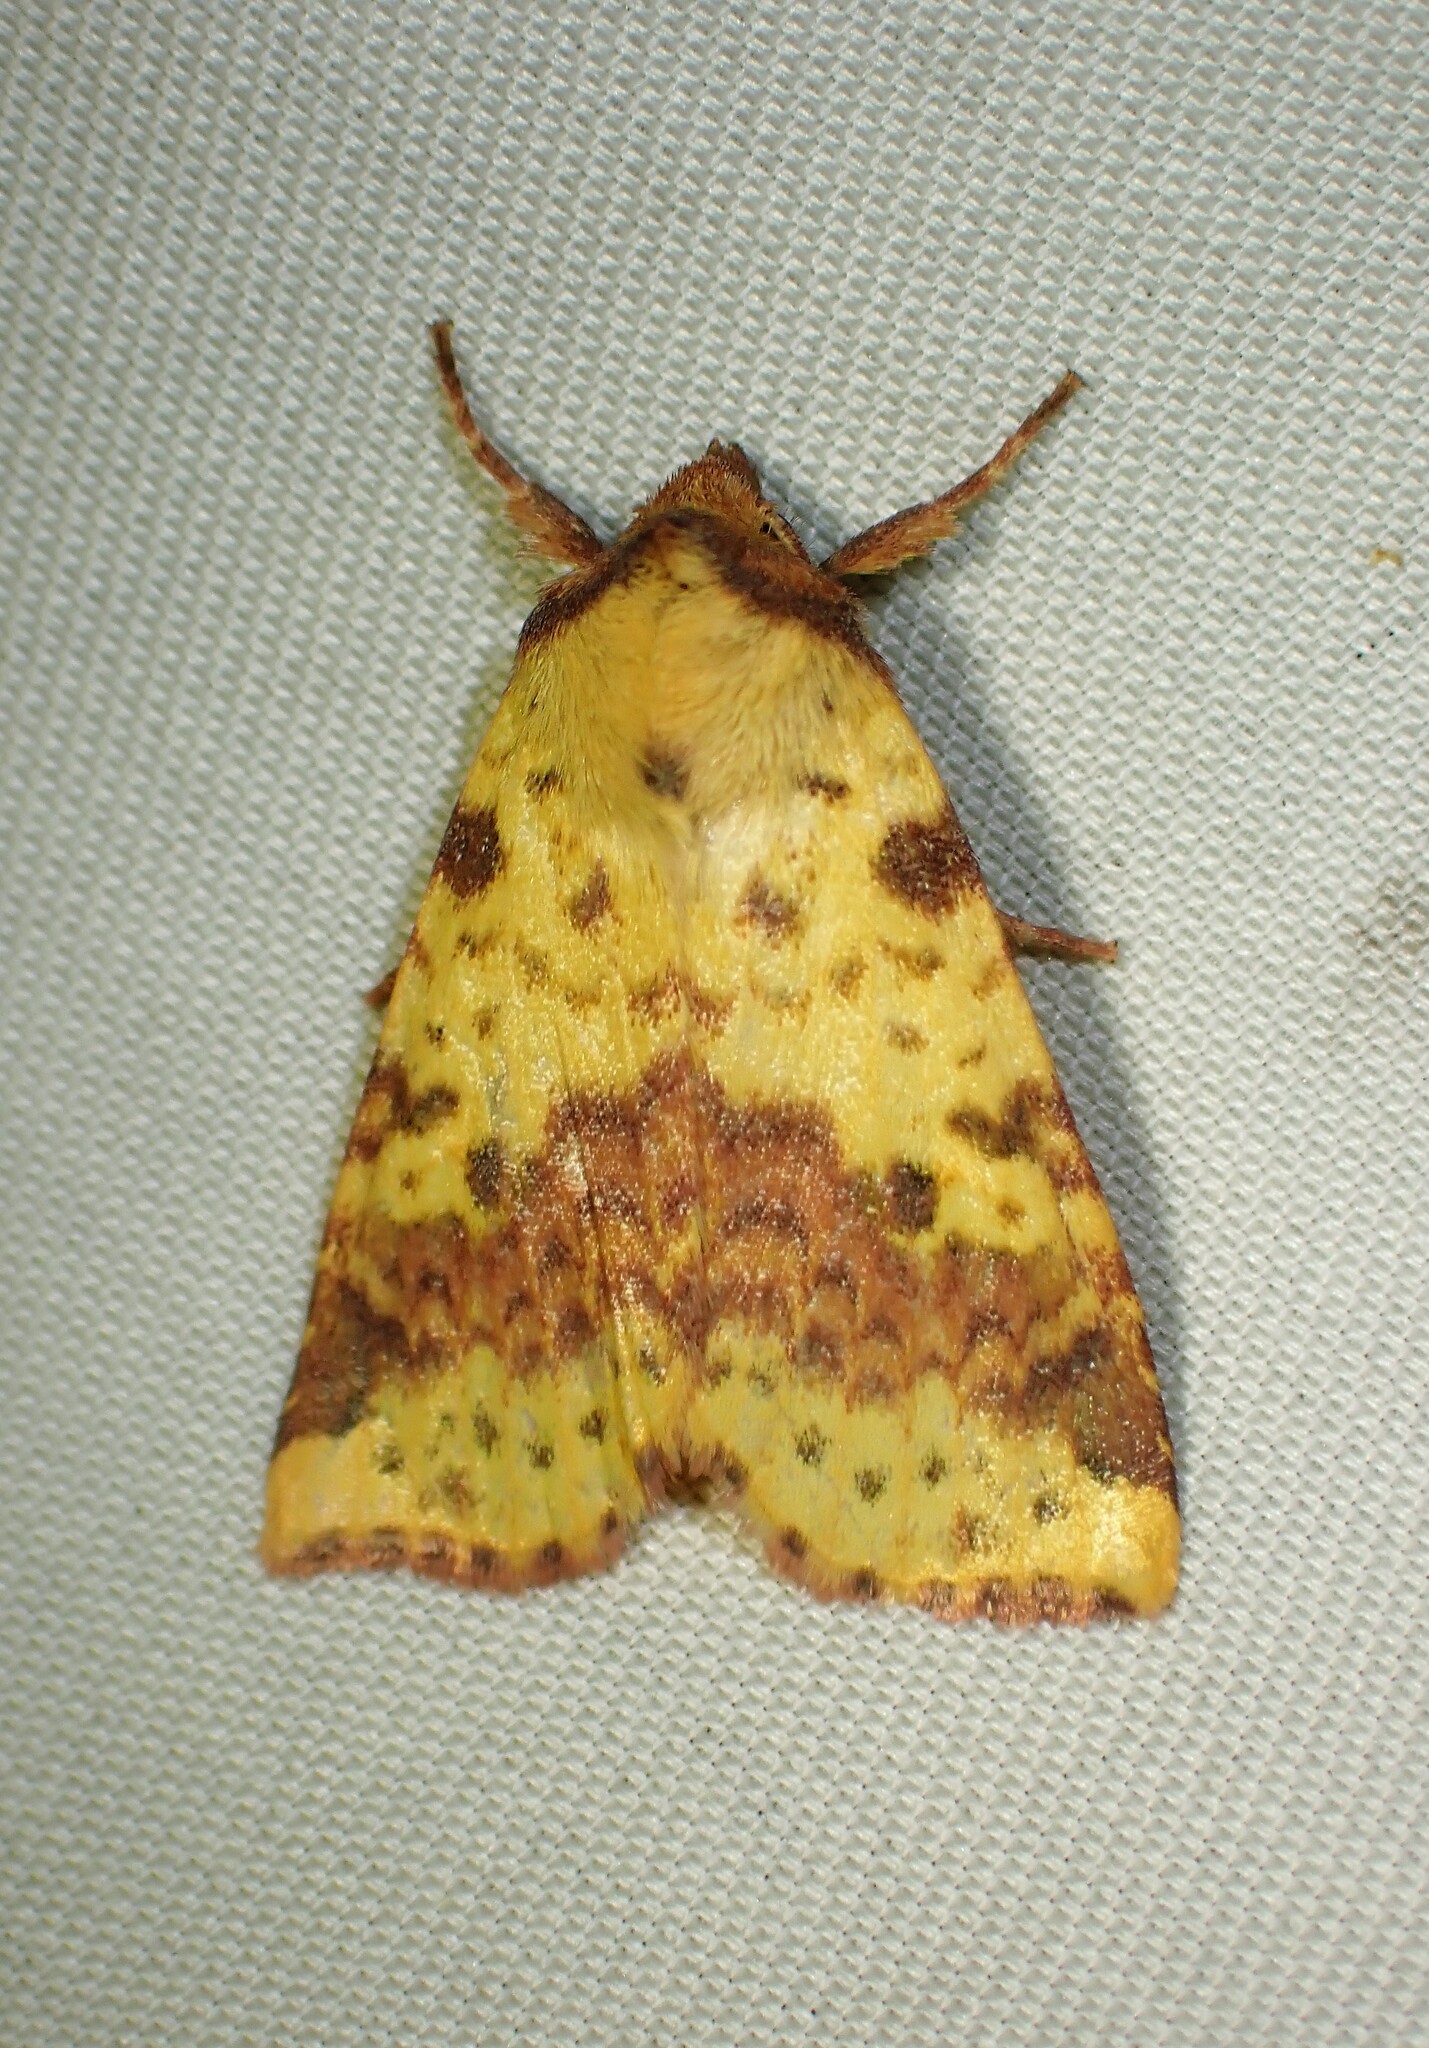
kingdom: Animalia
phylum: Arthropoda
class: Insecta
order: Lepidoptera
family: Noctuidae
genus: Xanthia
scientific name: Xanthia tatago
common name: Pink-banded sallow
